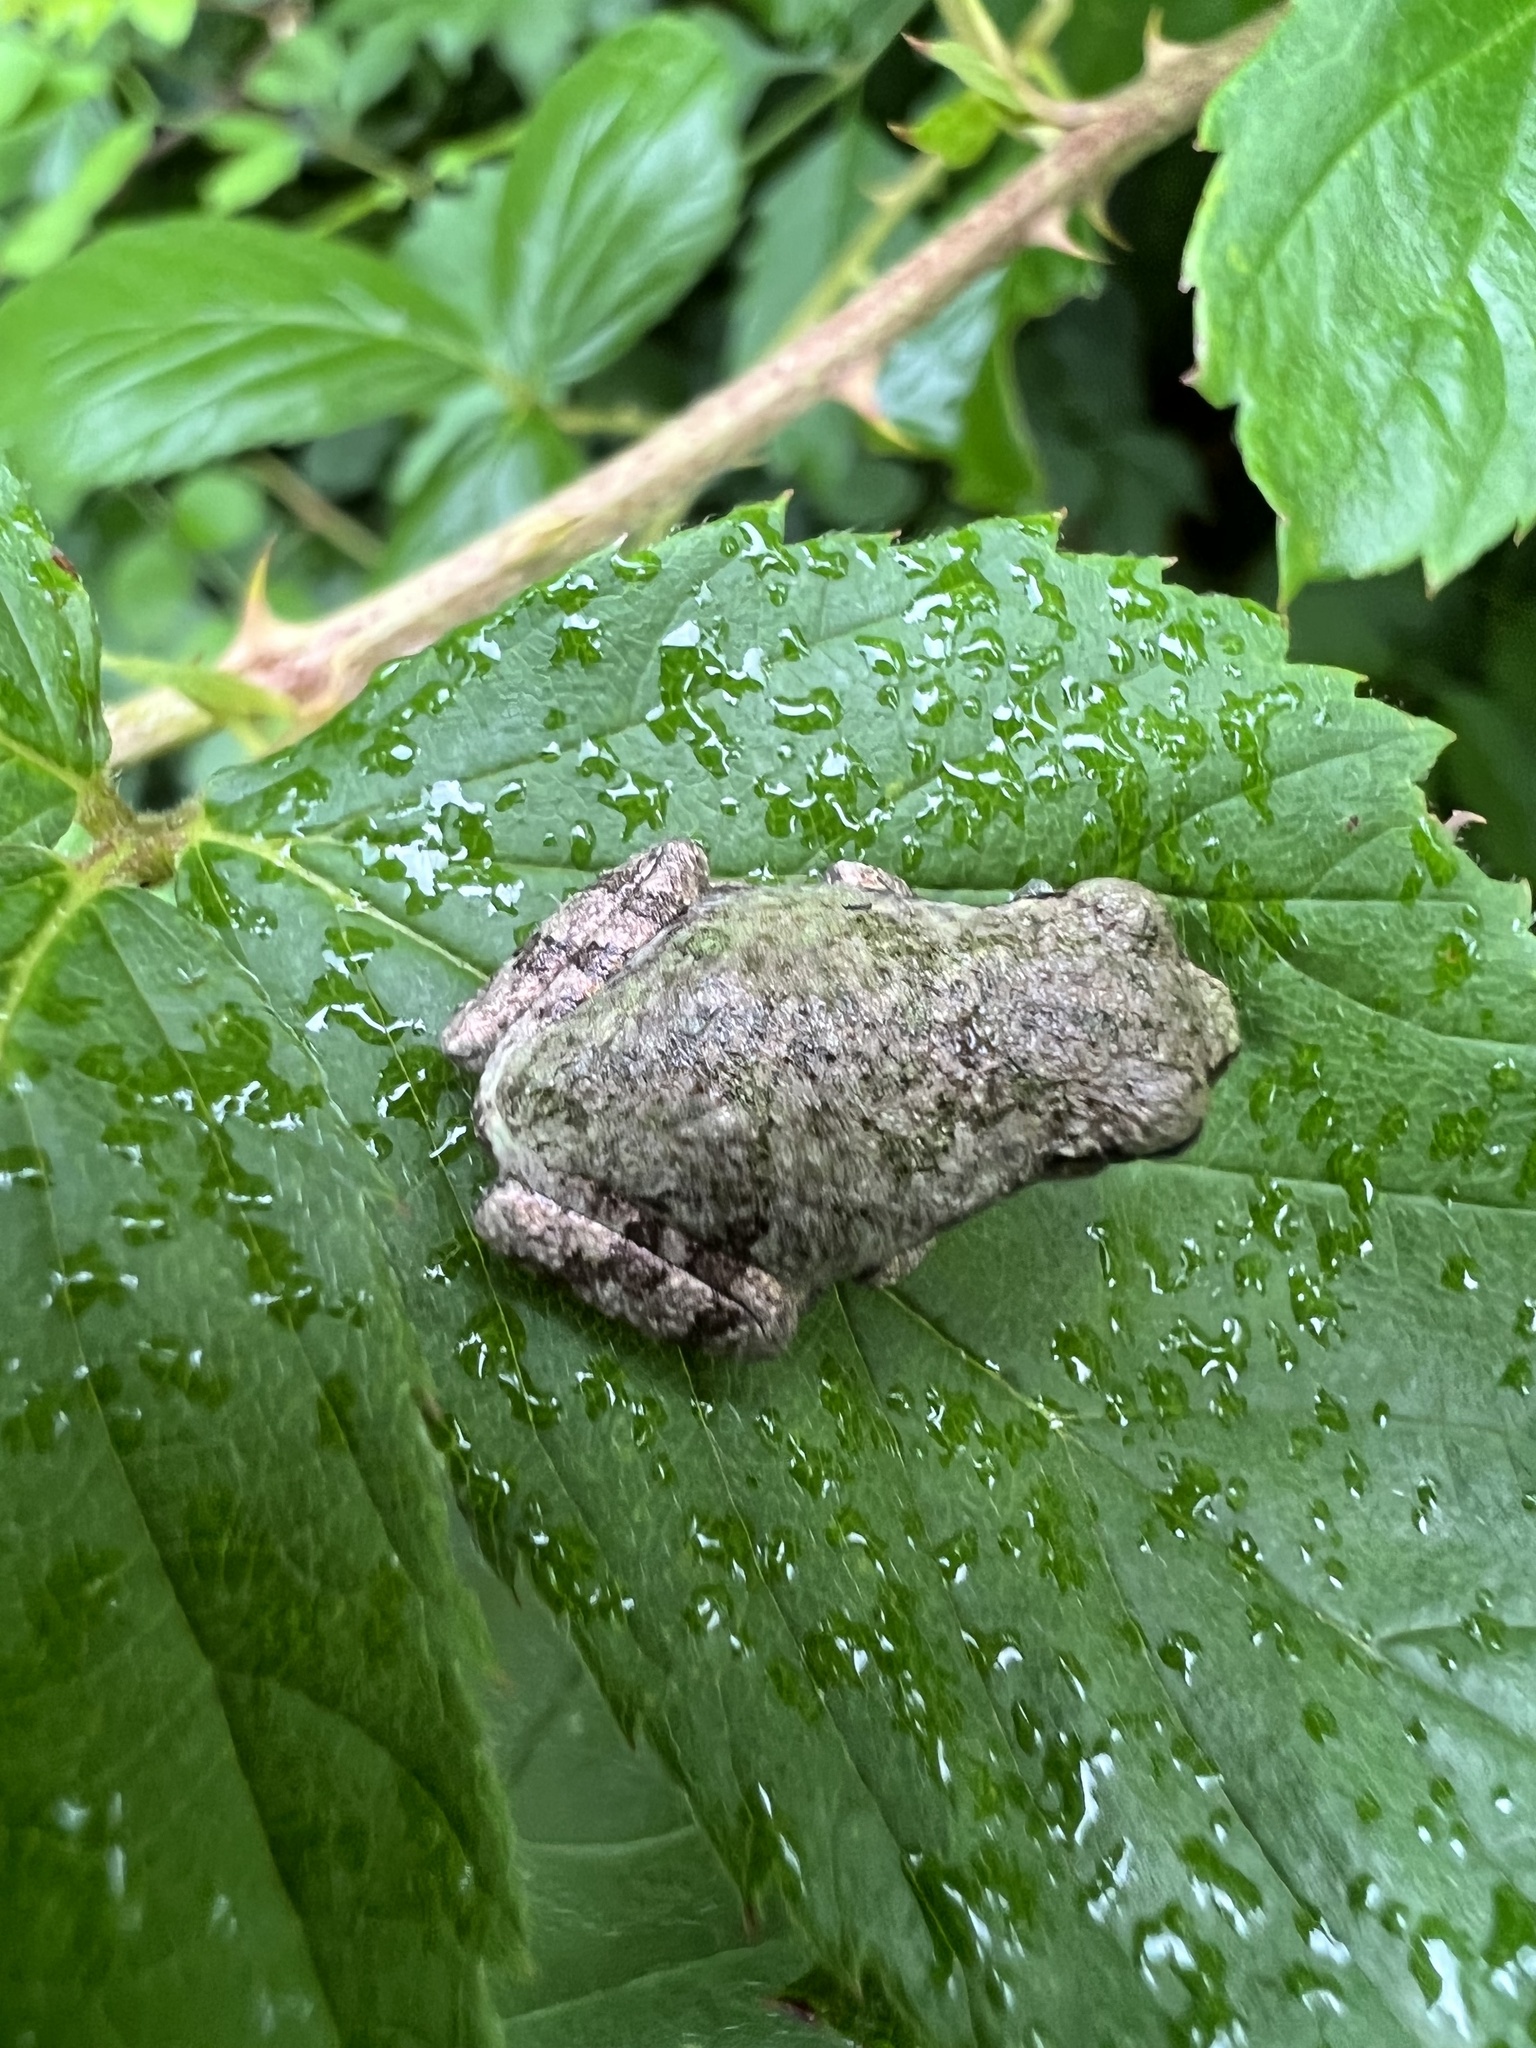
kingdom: Animalia
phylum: Chordata
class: Amphibia
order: Anura
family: Hylidae
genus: Hyla
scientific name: Hyla
